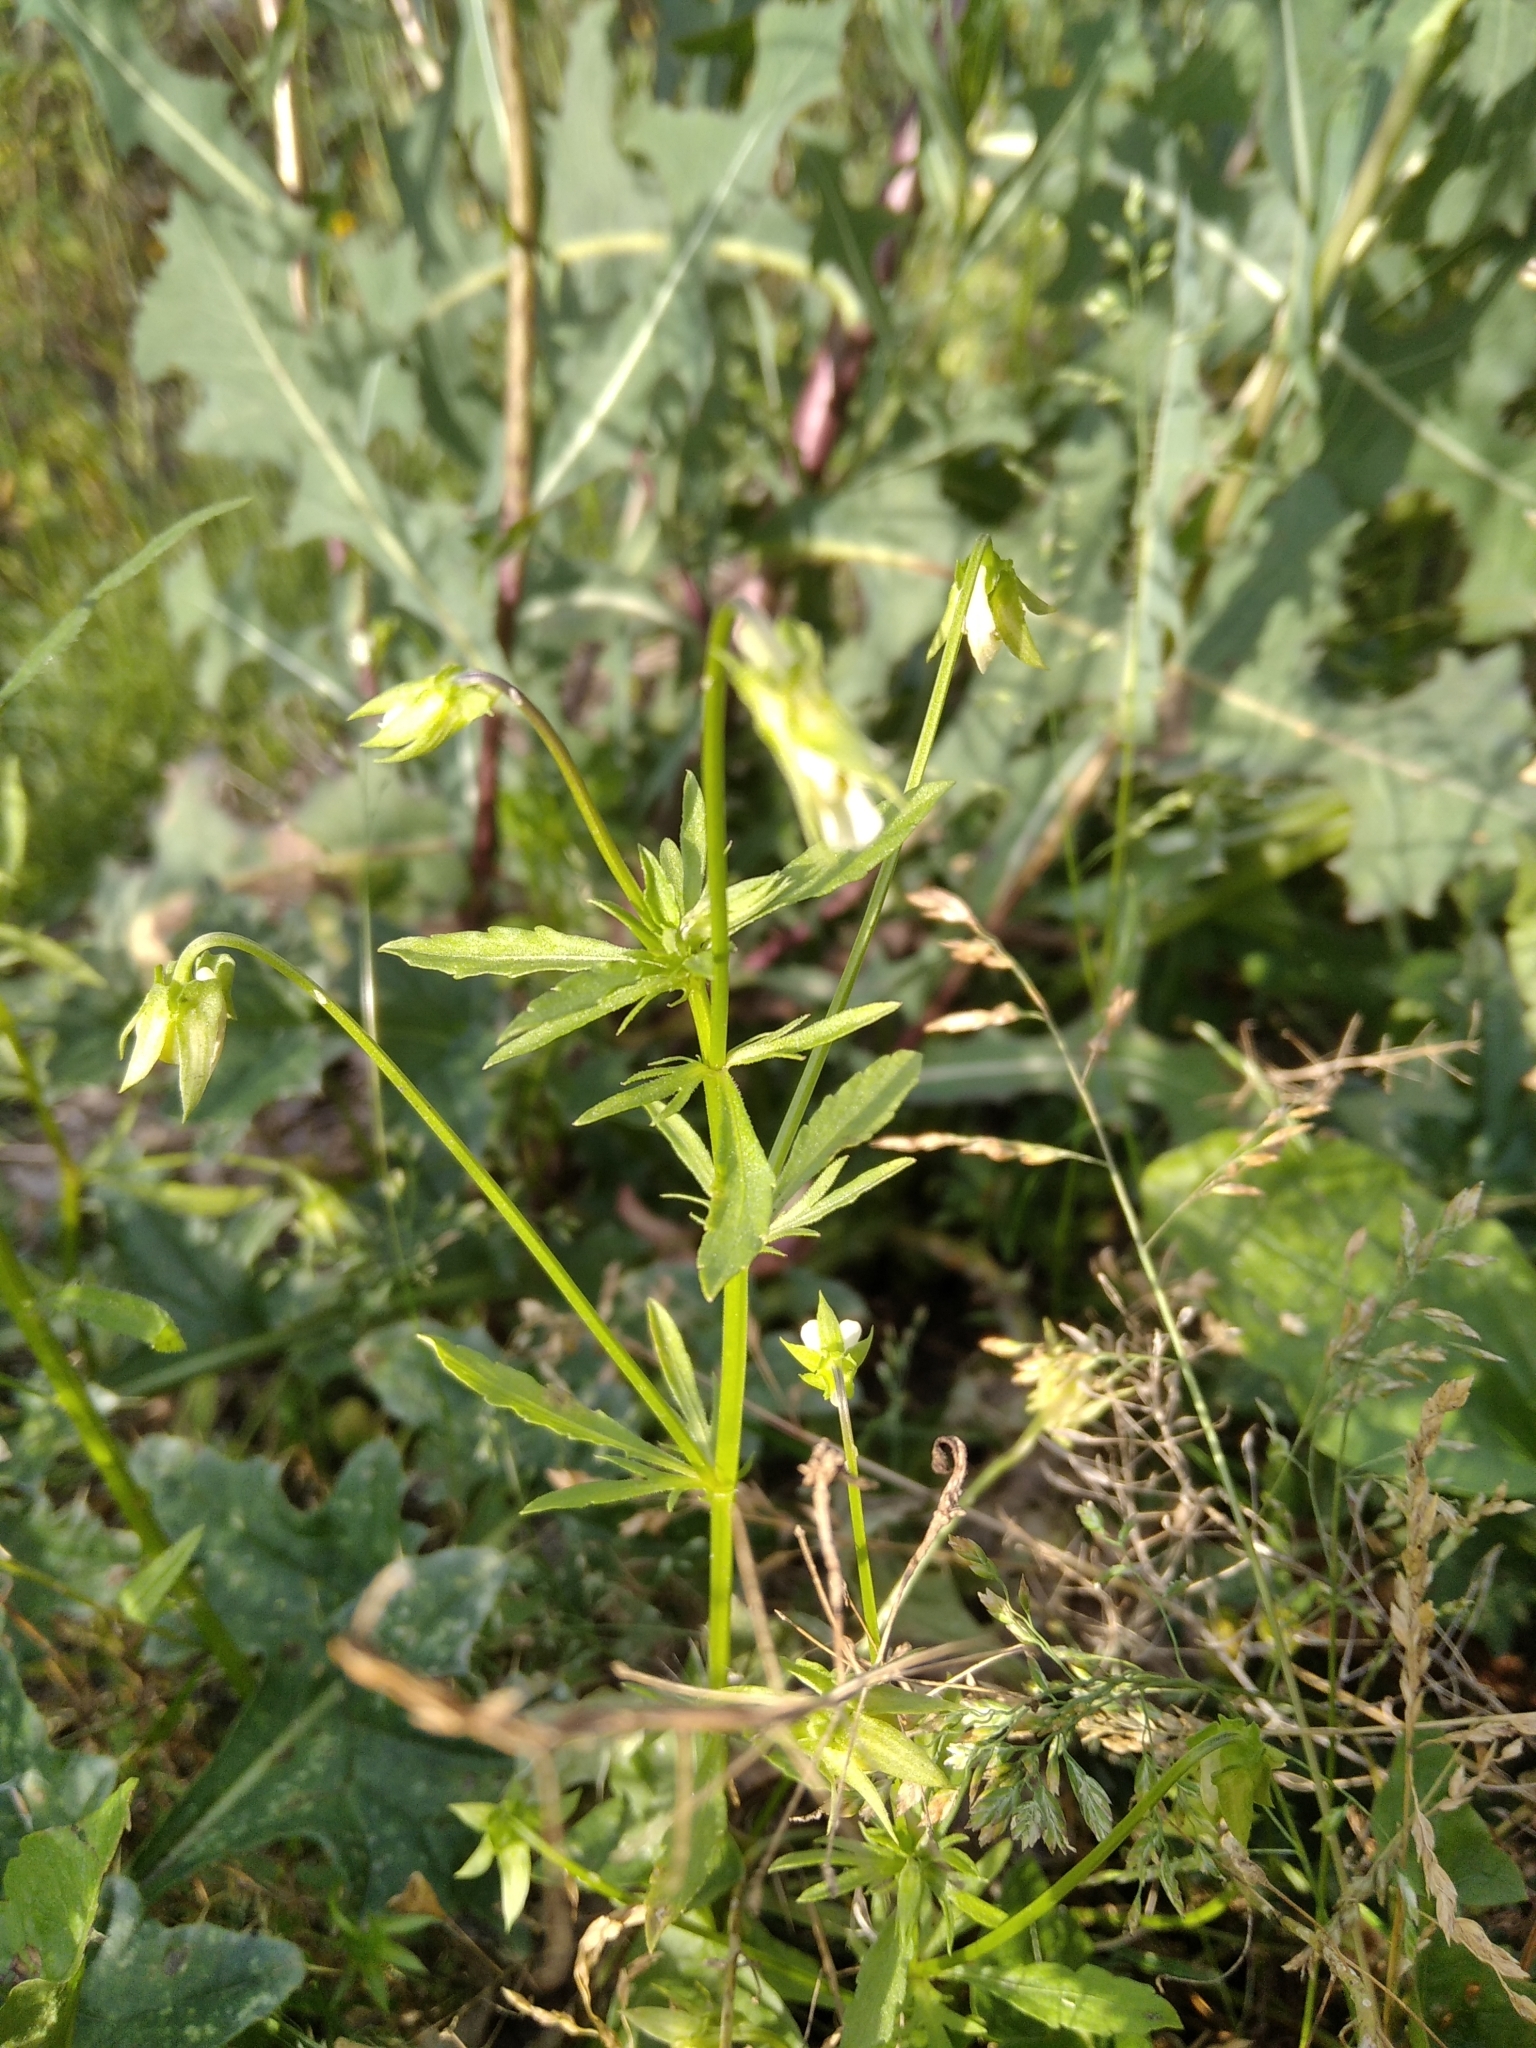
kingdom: Plantae
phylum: Tracheophyta
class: Magnoliopsida
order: Malpighiales
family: Violaceae
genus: Viola
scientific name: Viola arvensis
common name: Field pansy
